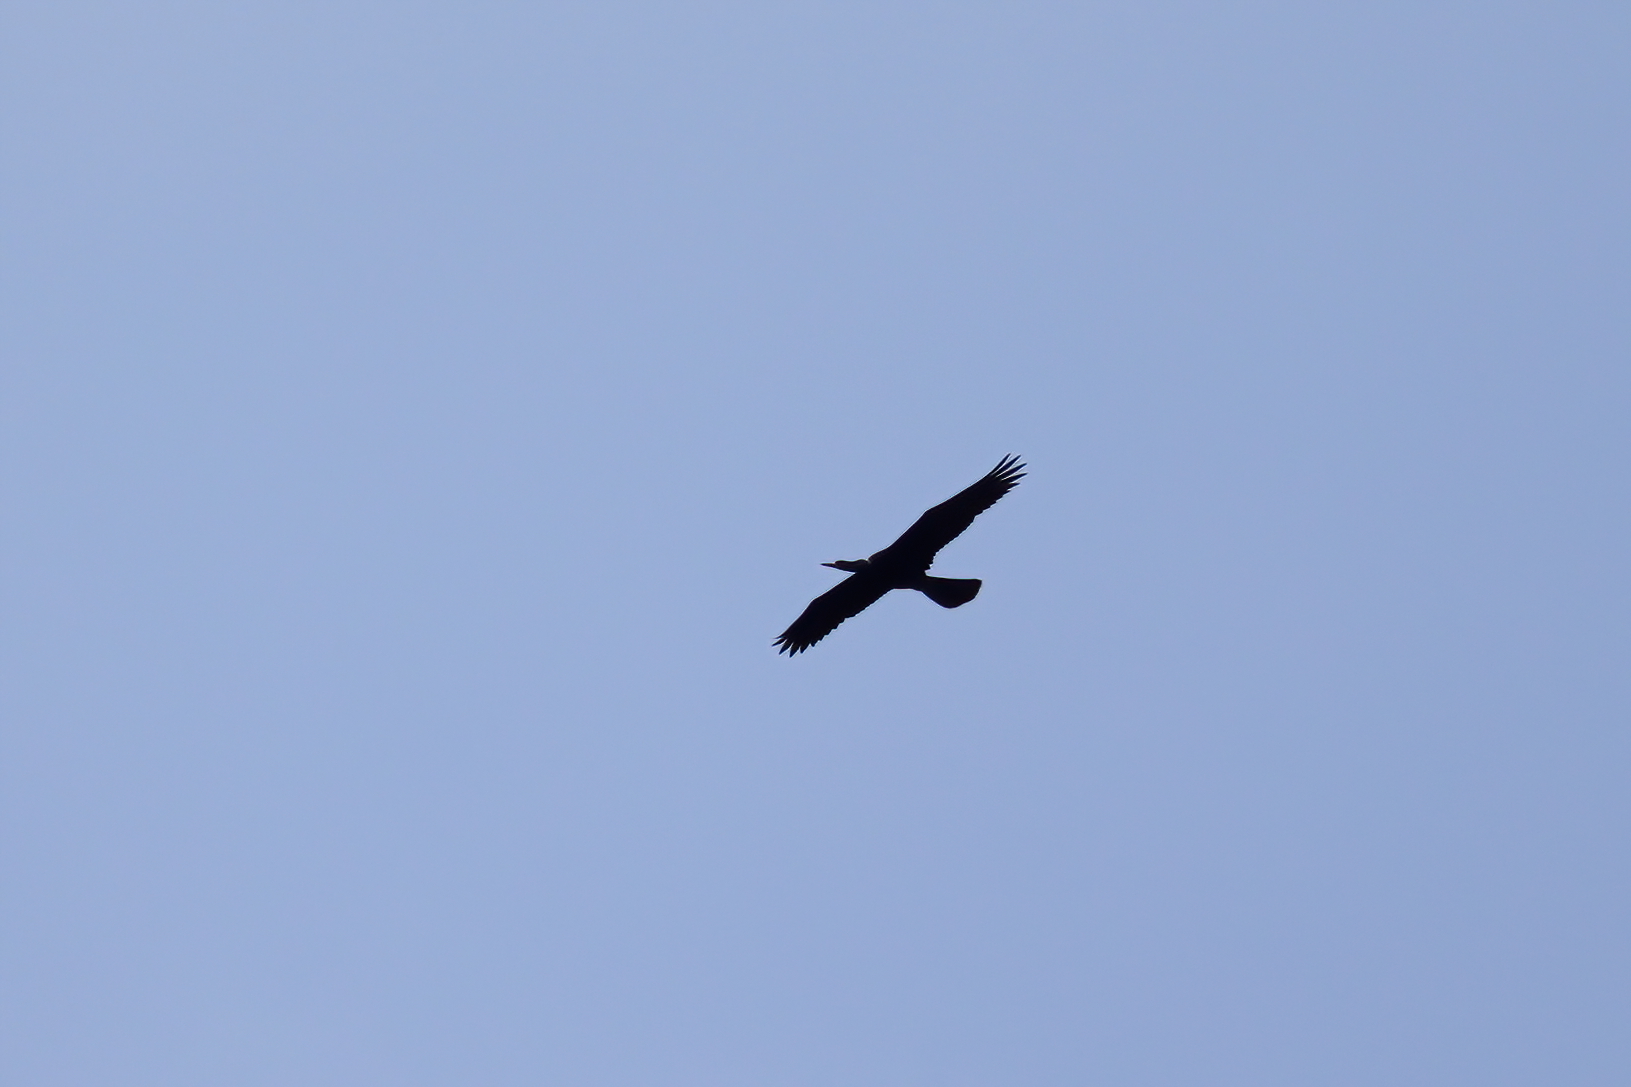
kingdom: Animalia
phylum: Chordata
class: Aves
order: Suliformes
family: Anhingidae
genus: Anhinga
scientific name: Anhinga anhinga
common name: Anhinga
